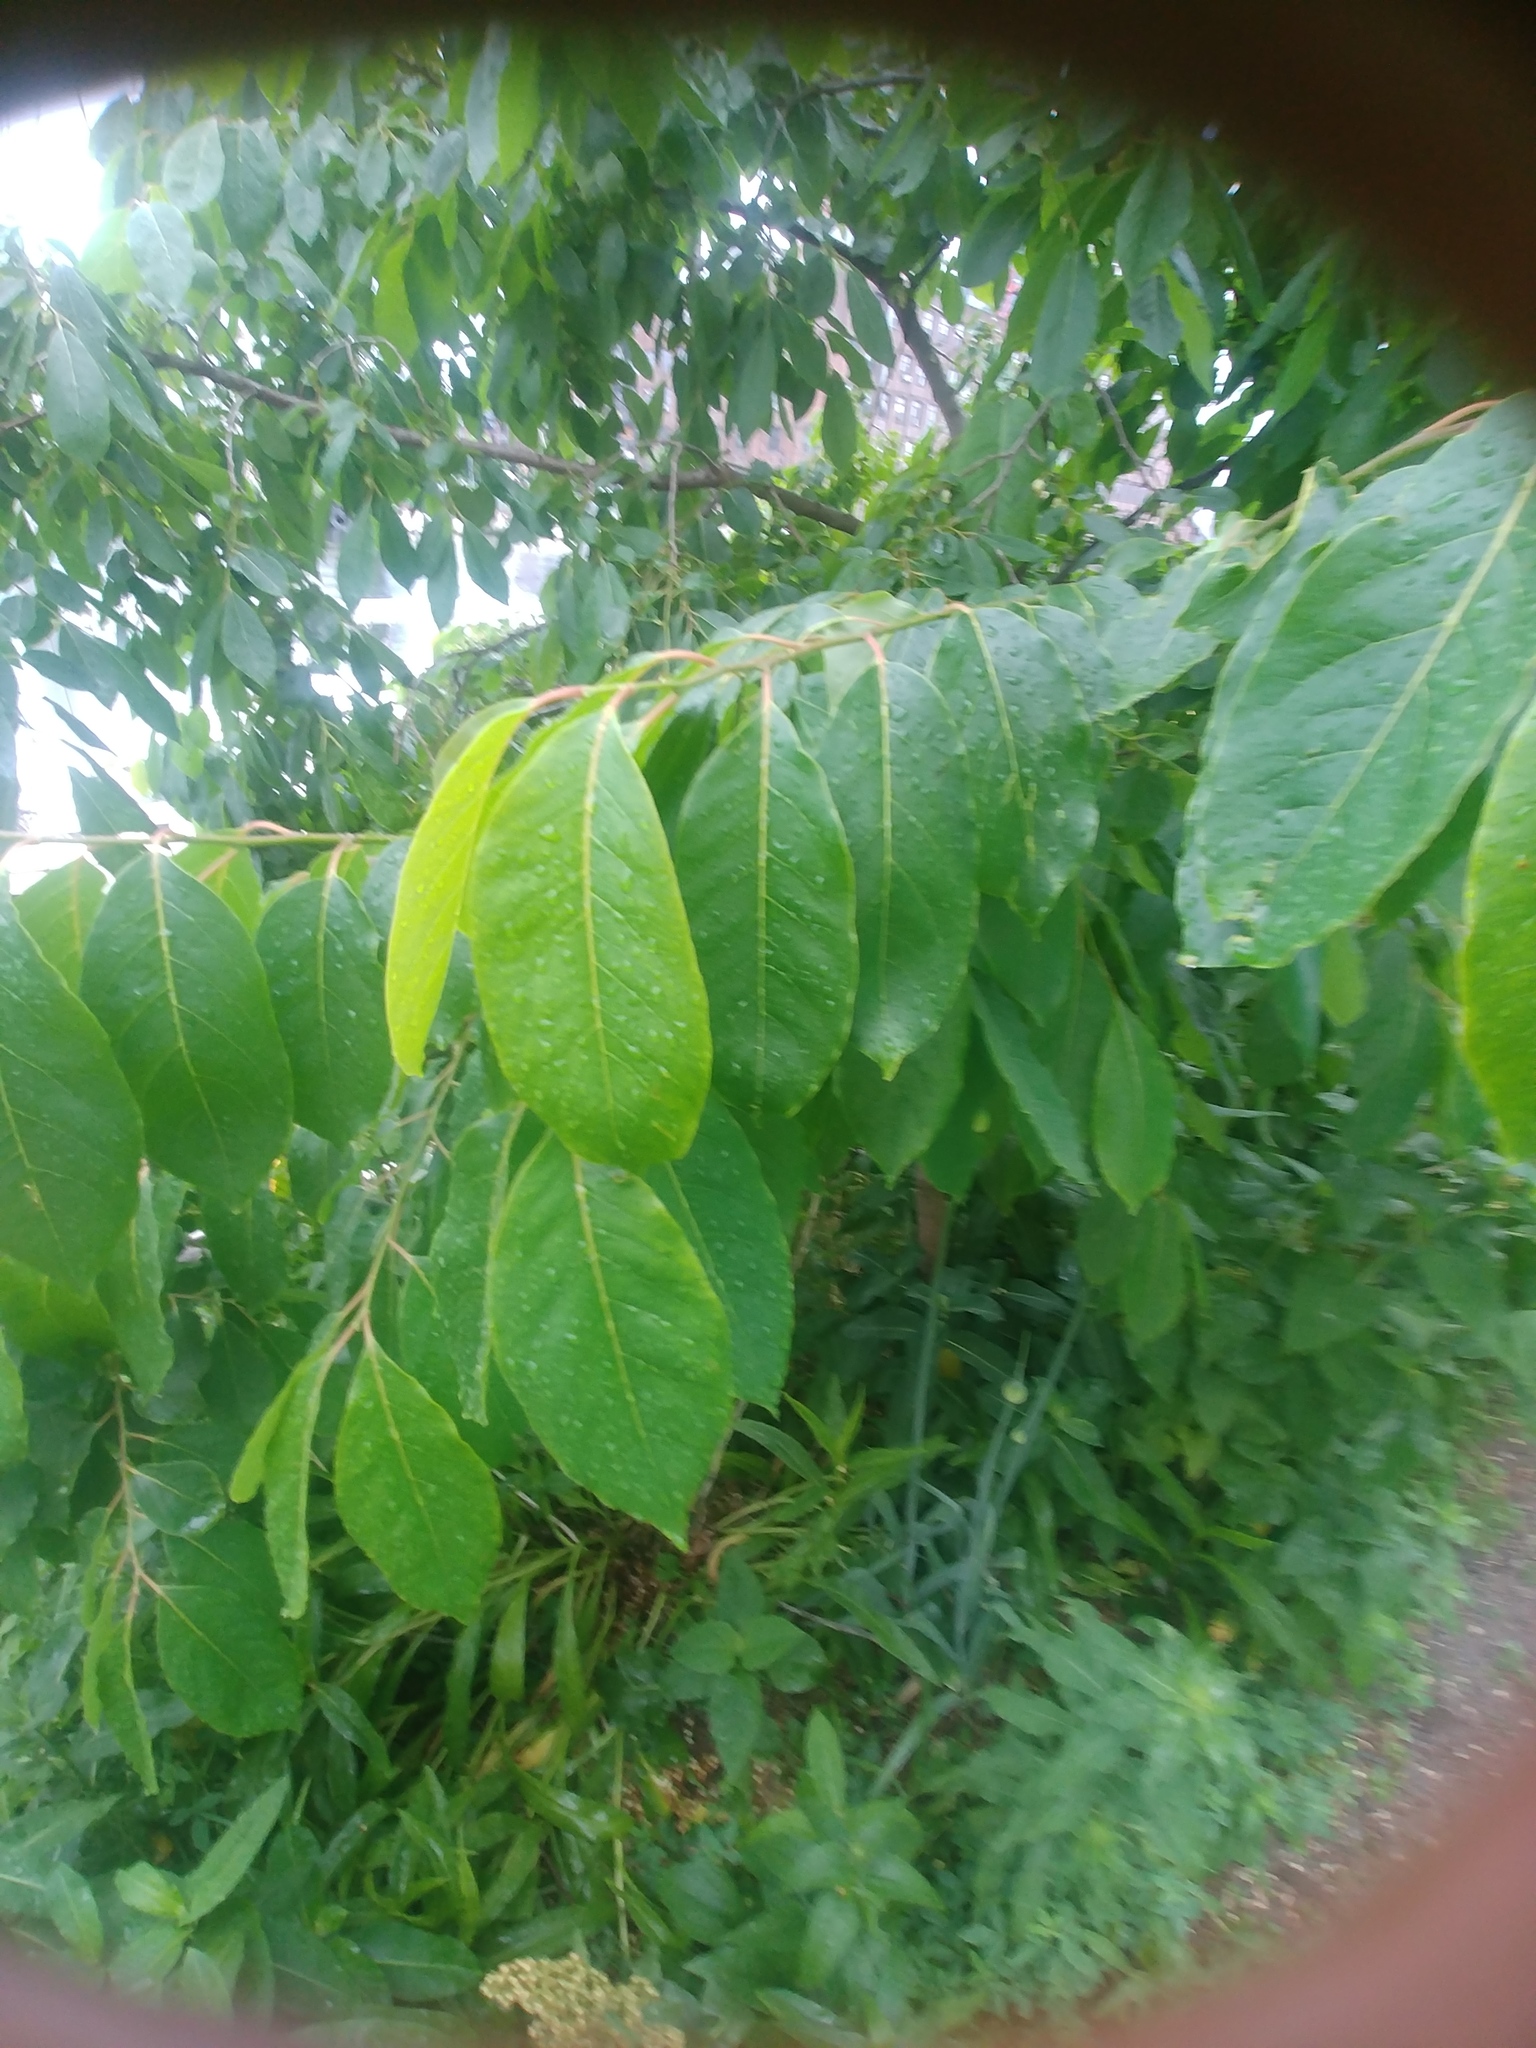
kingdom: Plantae
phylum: Tracheophyta
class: Magnoliopsida
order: Ericales
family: Ebenaceae
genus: Diospyros
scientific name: Diospyros virginiana
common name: Persimmon
